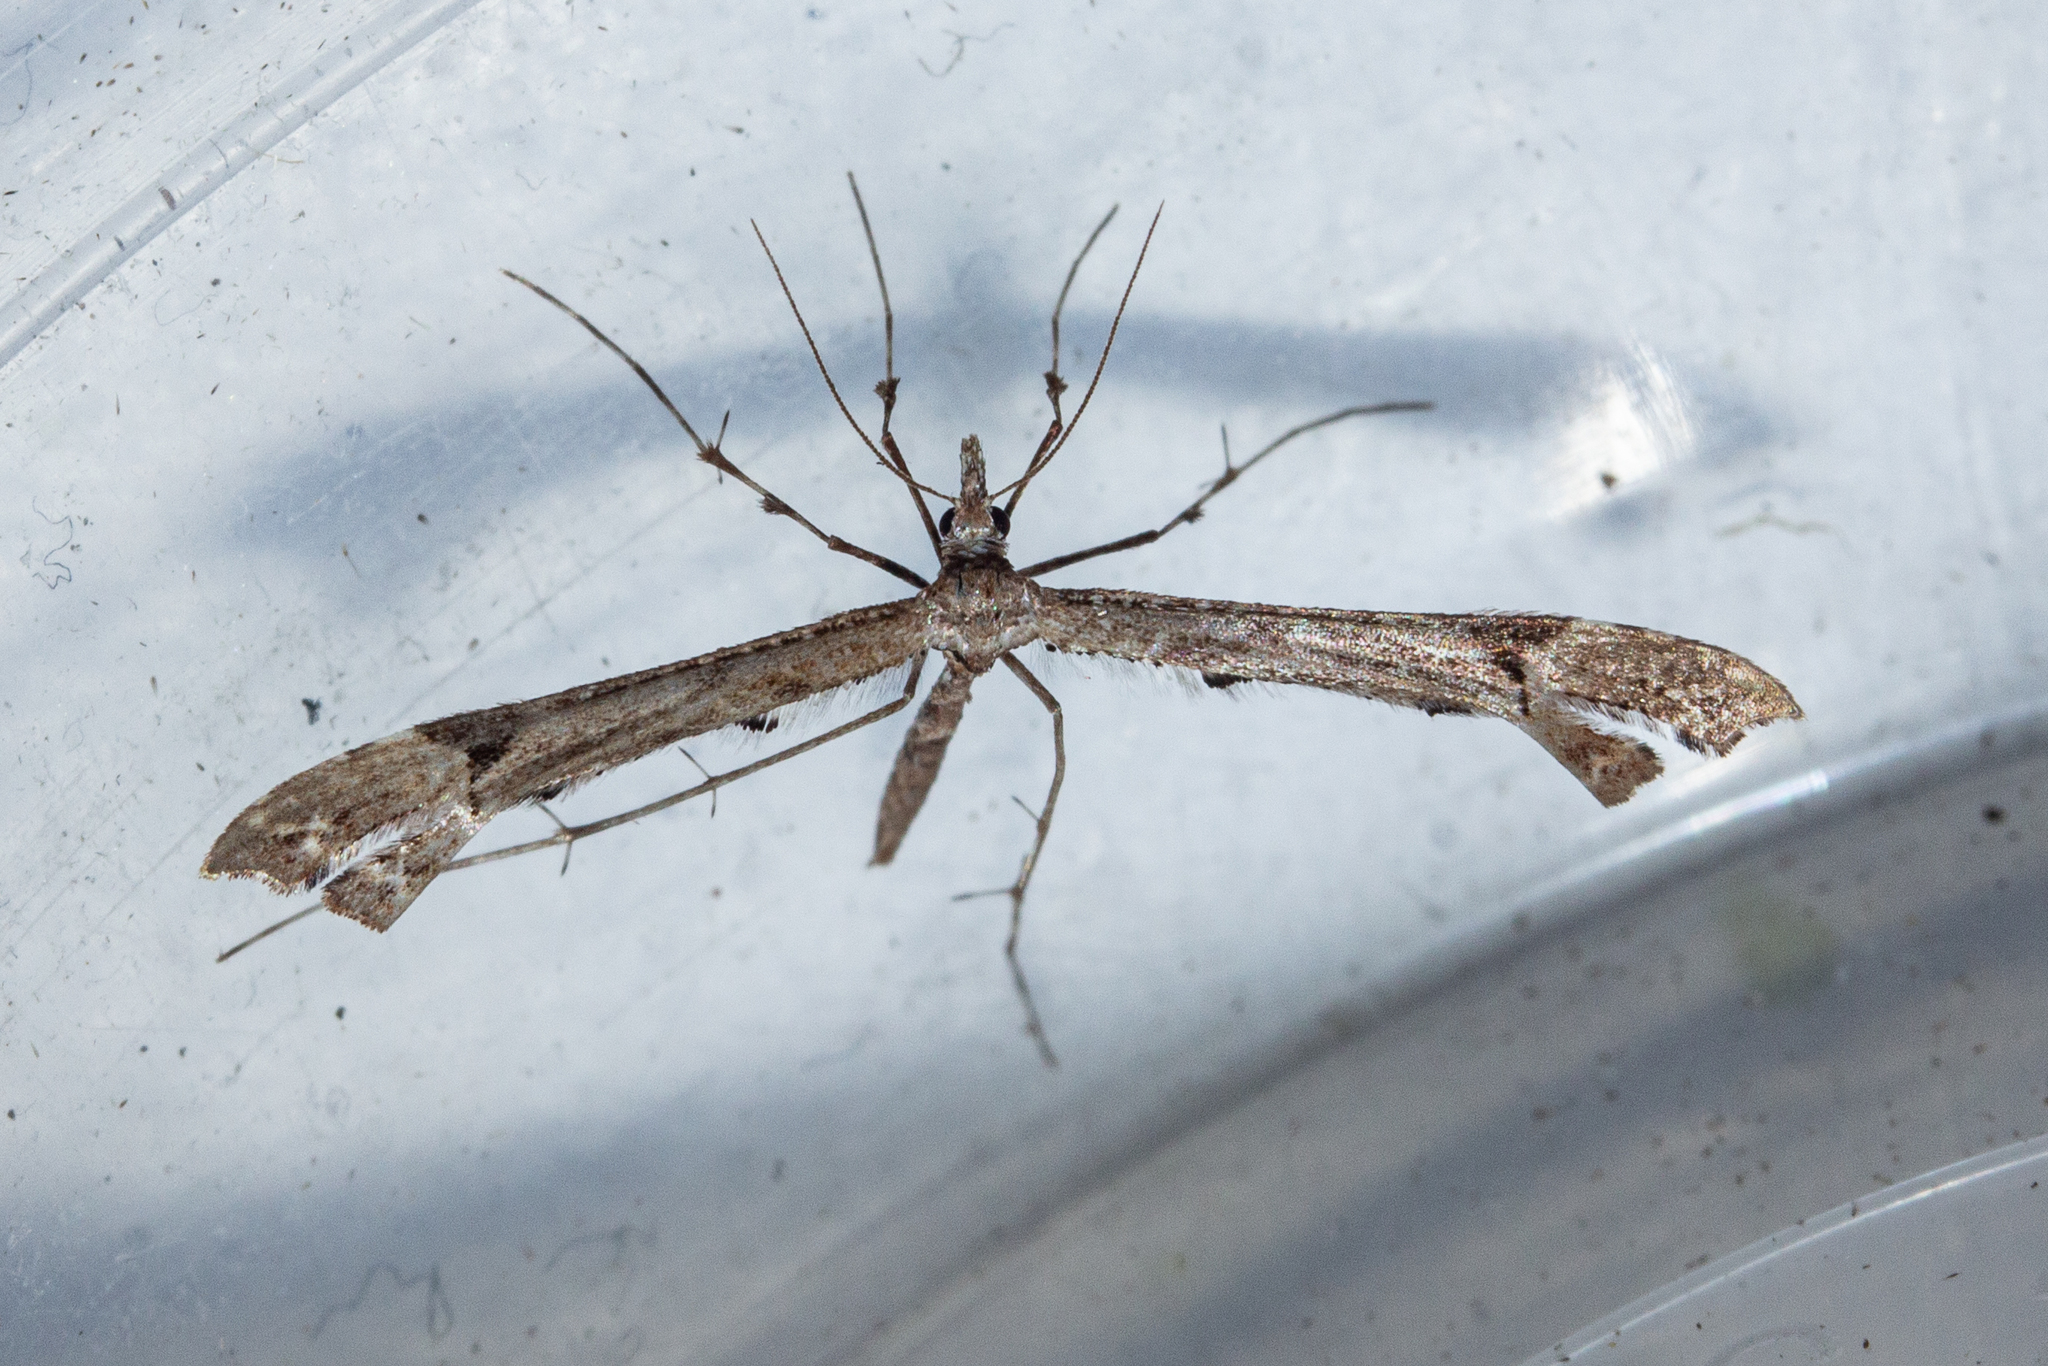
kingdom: Animalia
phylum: Arthropoda
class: Insecta
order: Lepidoptera
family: Pterophoridae
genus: Amblyptilia
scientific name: Amblyptilia repletalis
